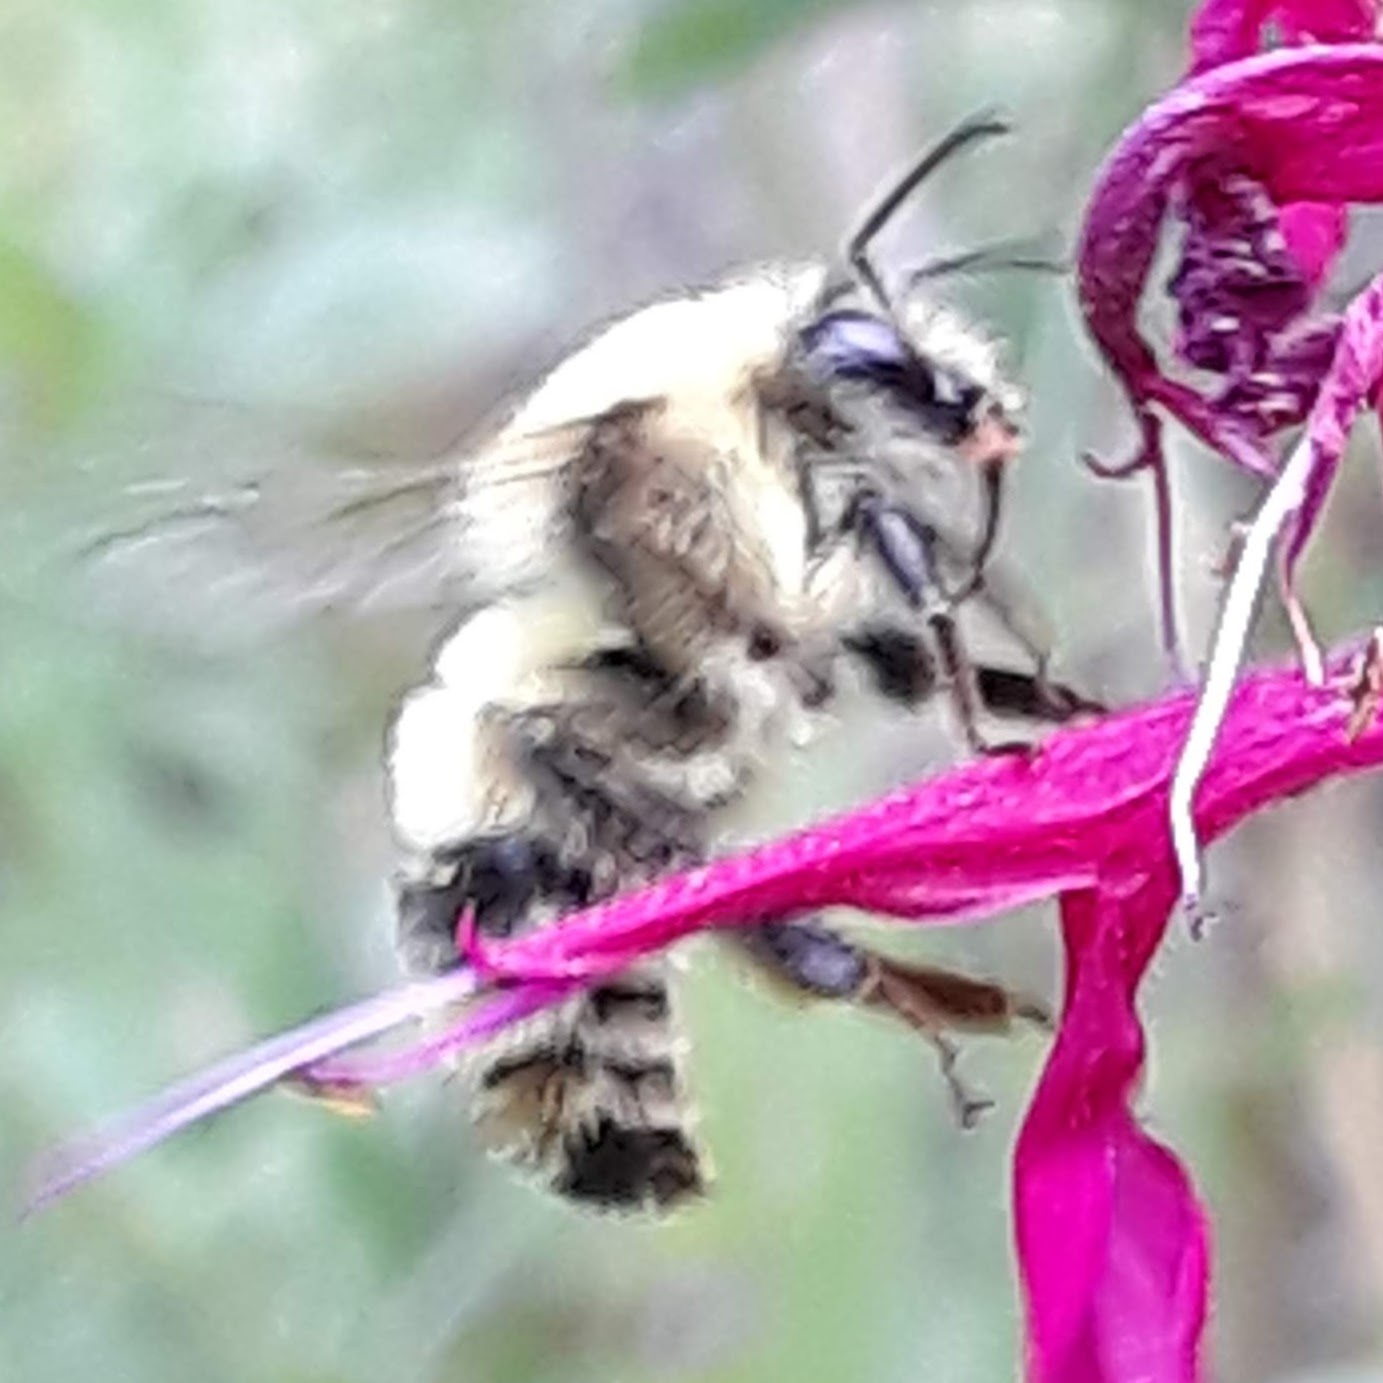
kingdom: Animalia
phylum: Arthropoda
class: Insecta
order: Hymenoptera
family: Apidae
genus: Bombus
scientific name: Bombus bimaculatus
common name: Two-spotted bumble bee
